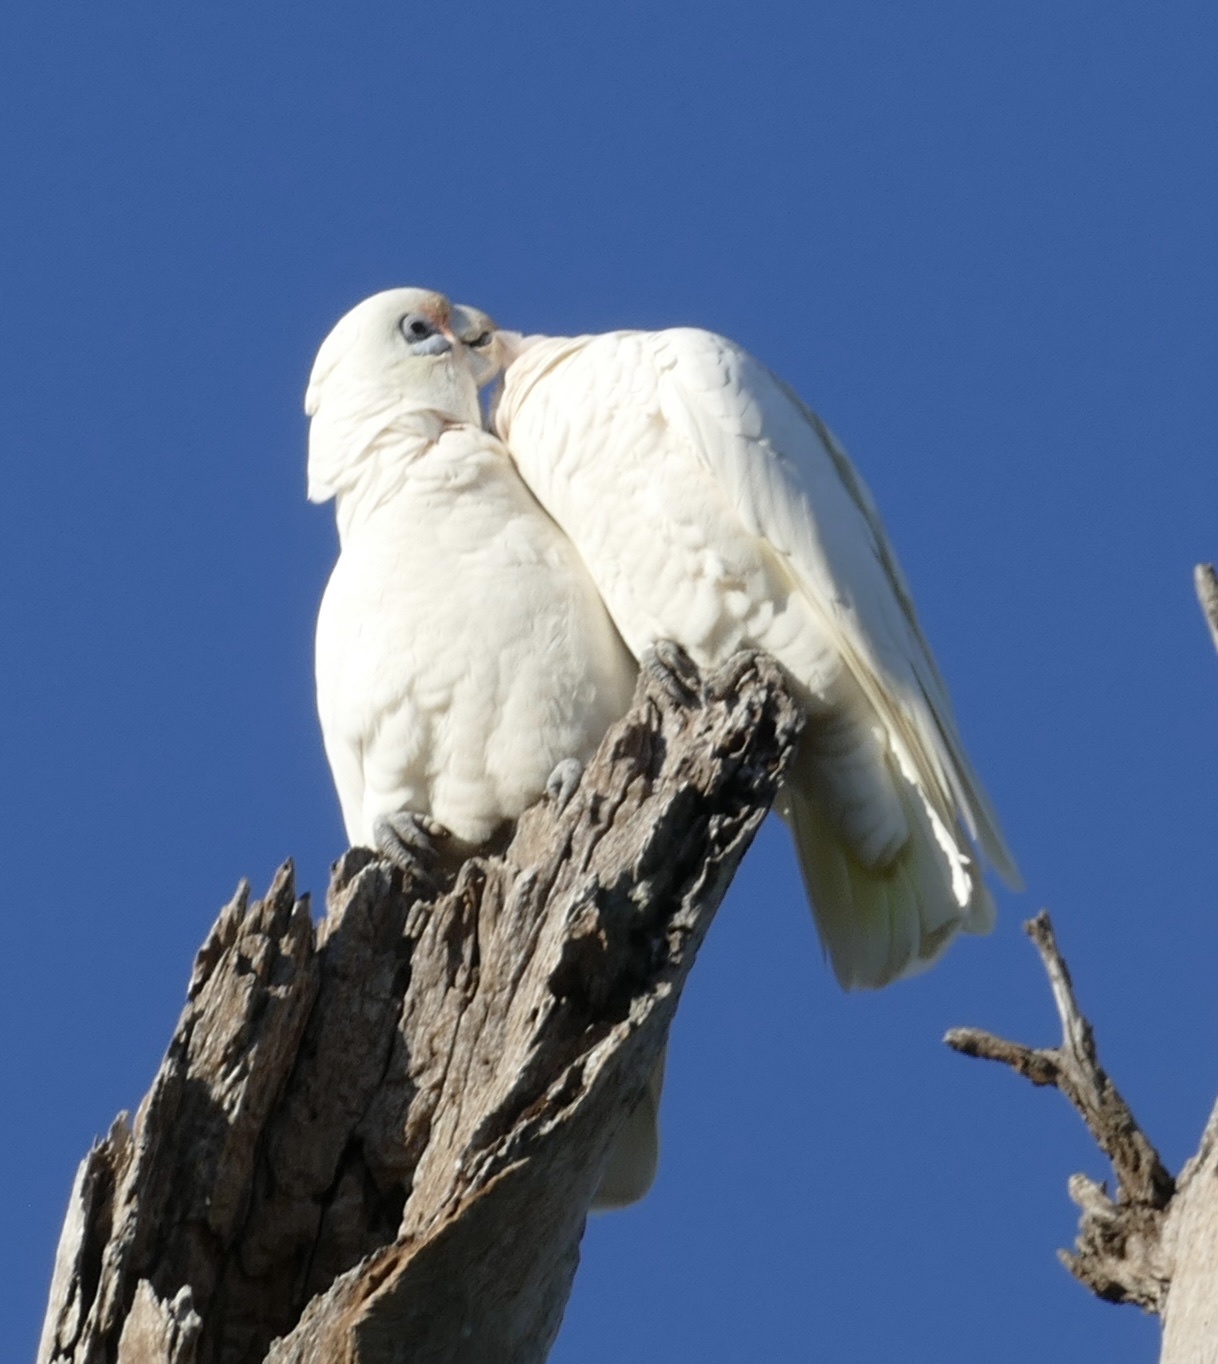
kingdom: Animalia
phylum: Chordata
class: Aves
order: Psittaciformes
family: Psittacidae
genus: Cacatua
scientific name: Cacatua sanguinea
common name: Little corella
